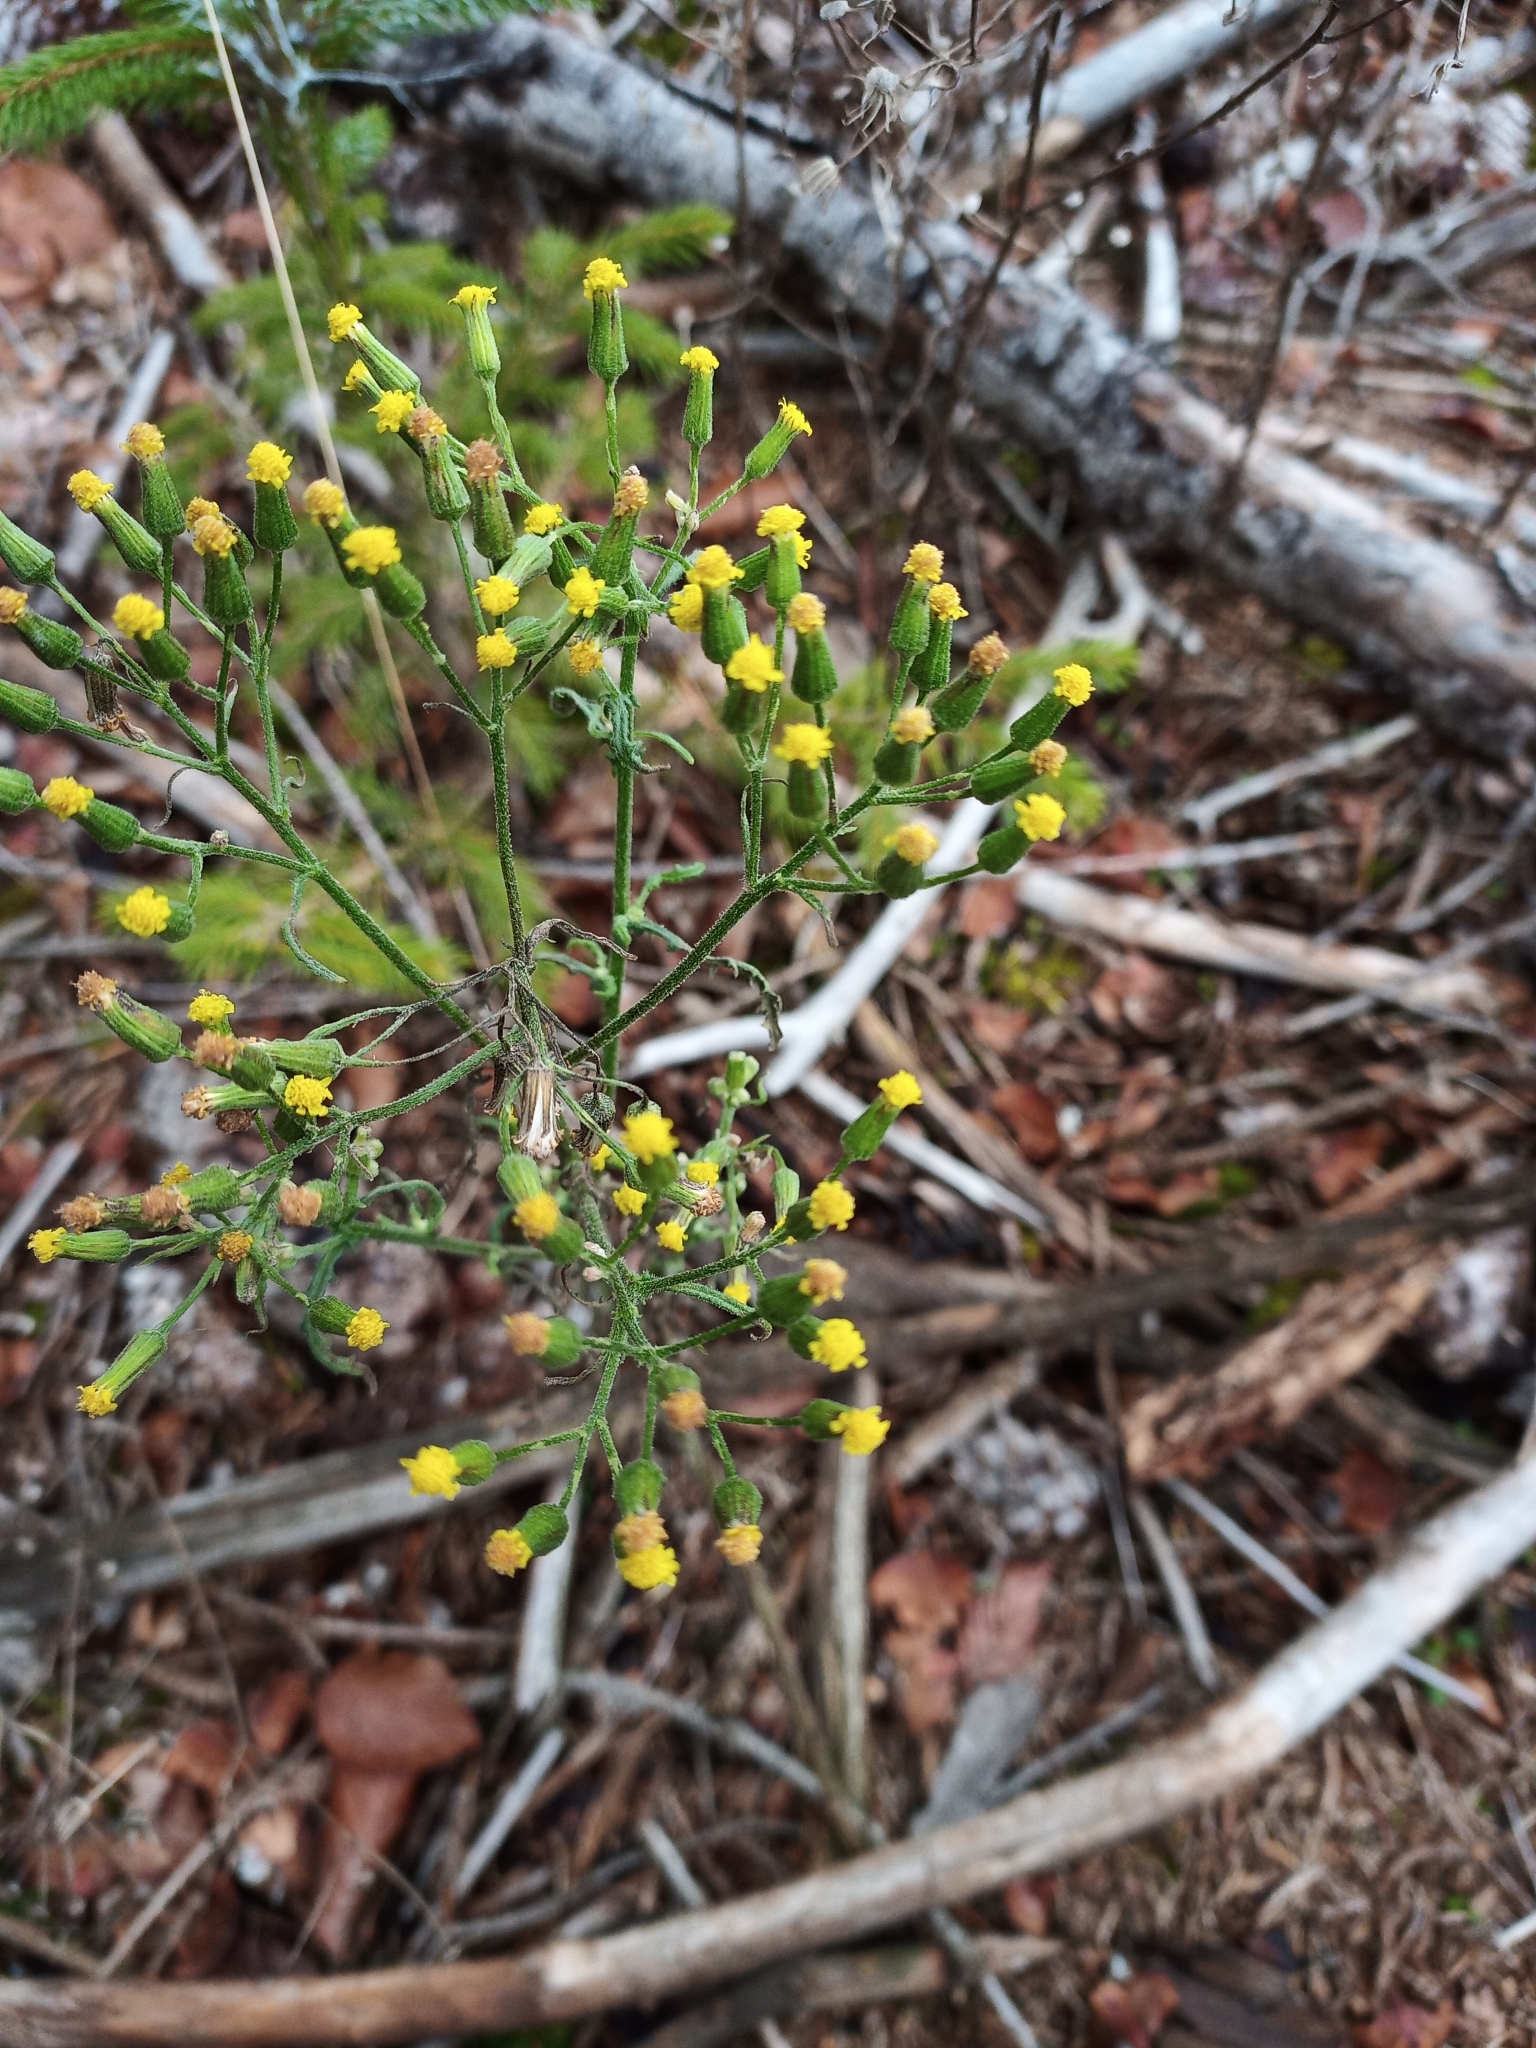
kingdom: Plantae
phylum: Tracheophyta
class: Magnoliopsida
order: Asterales
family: Asteraceae
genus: Senecio
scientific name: Senecio sylvaticus
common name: Woodland ragwort
